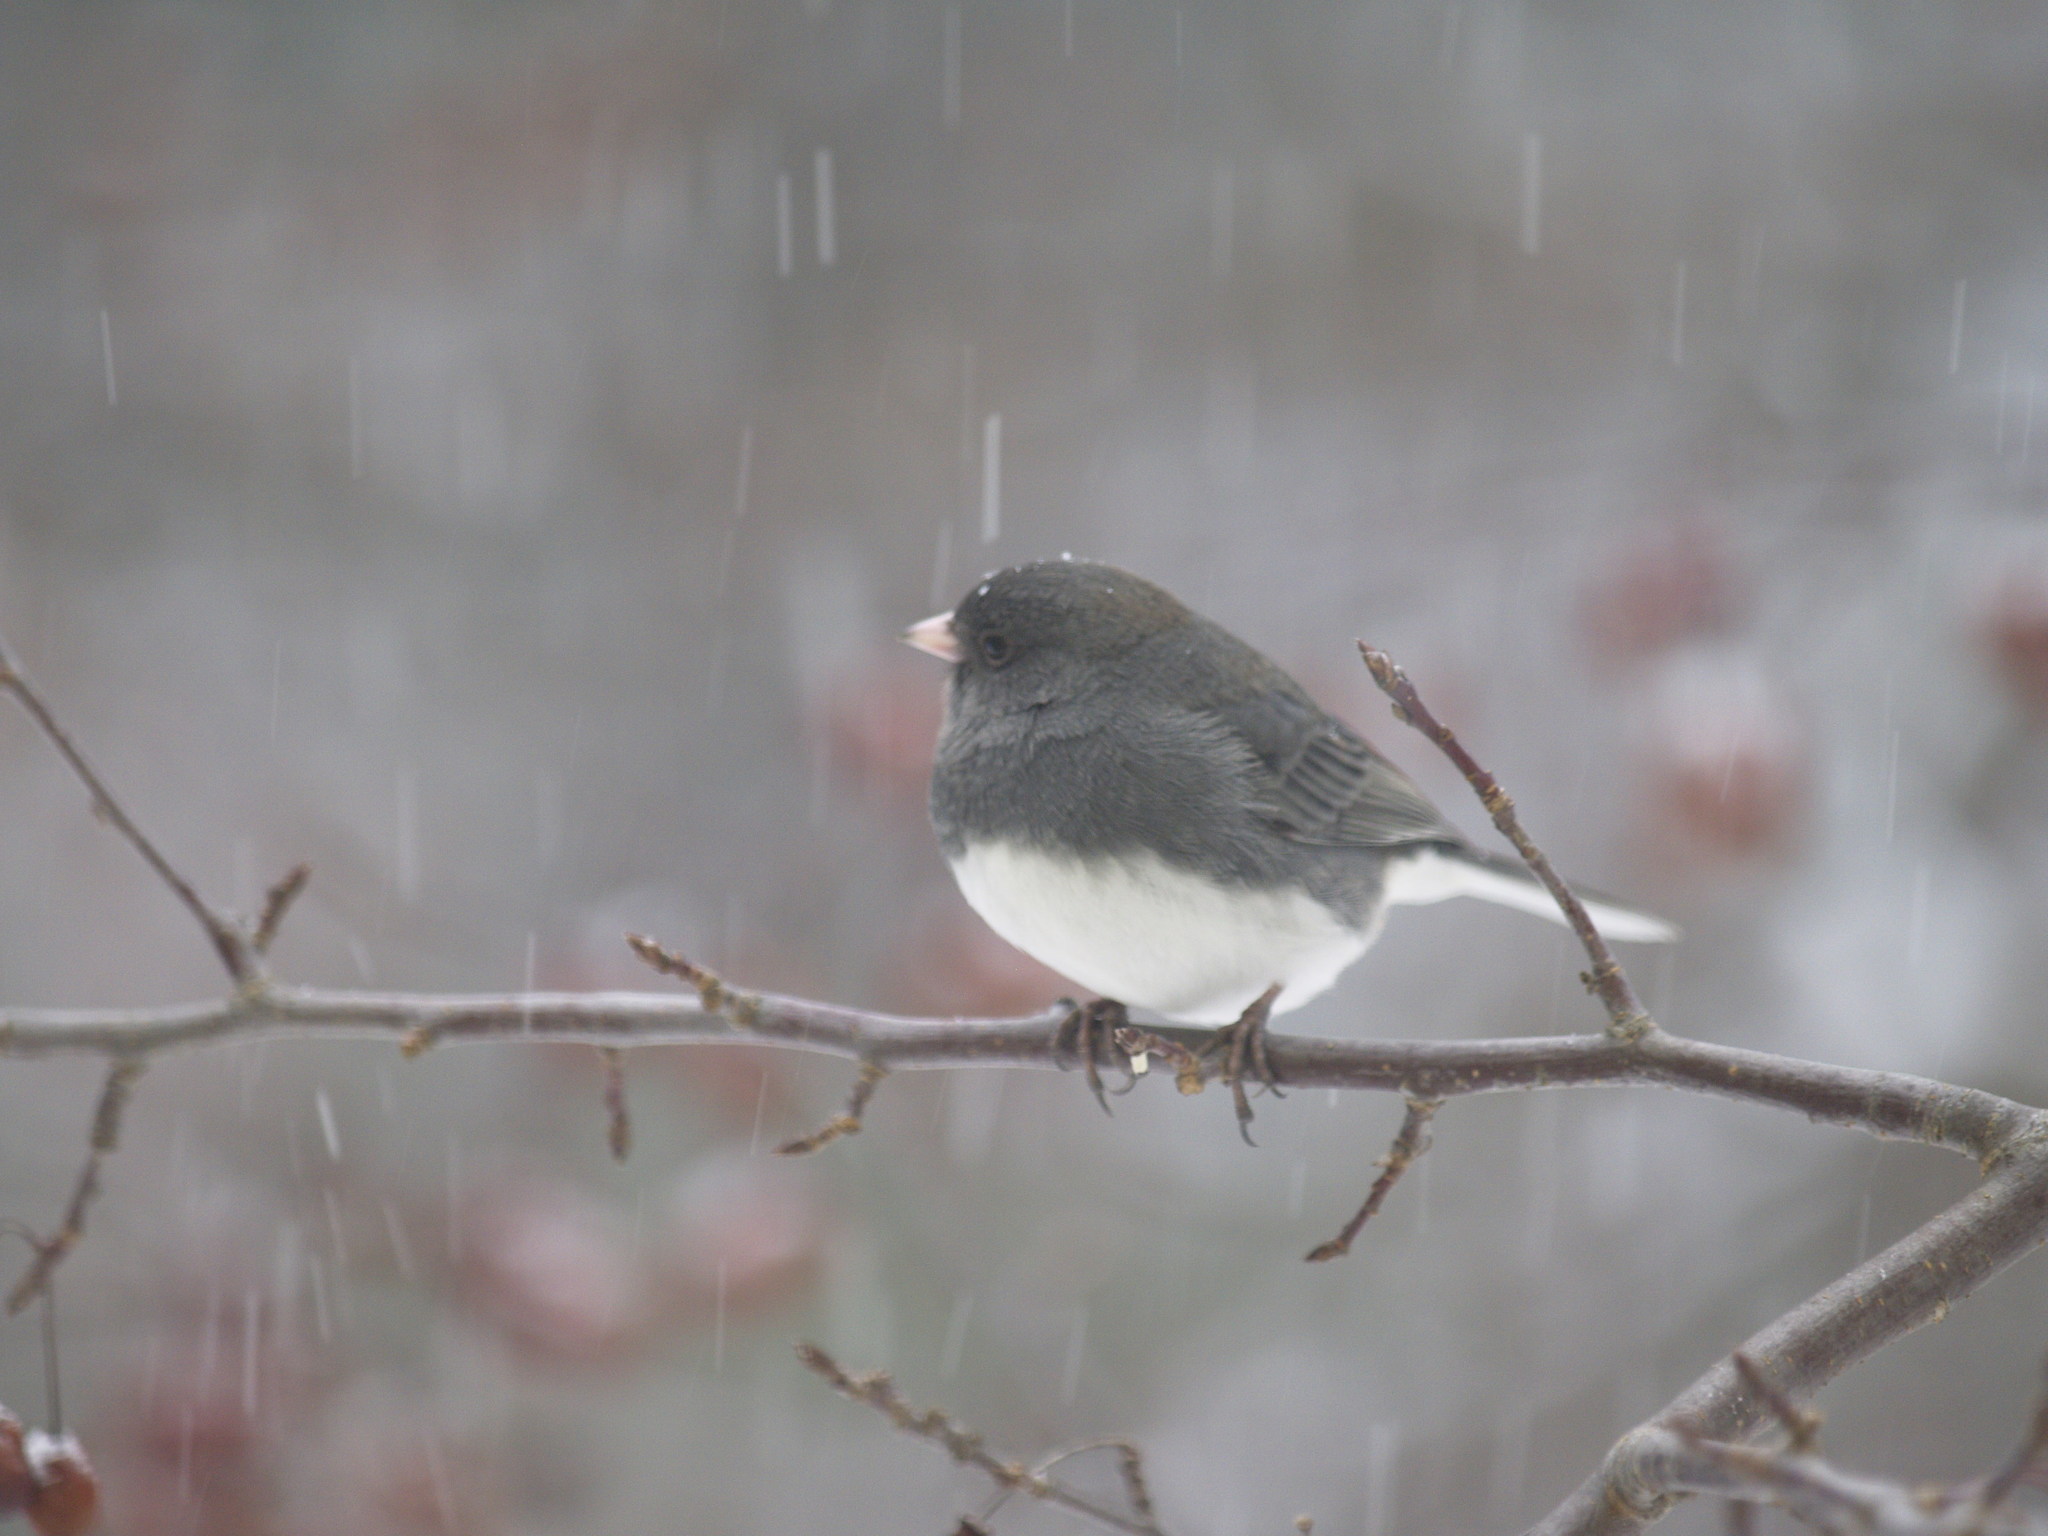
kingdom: Animalia
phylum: Chordata
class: Aves
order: Passeriformes
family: Passerellidae
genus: Junco
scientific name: Junco hyemalis
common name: Dark-eyed junco
